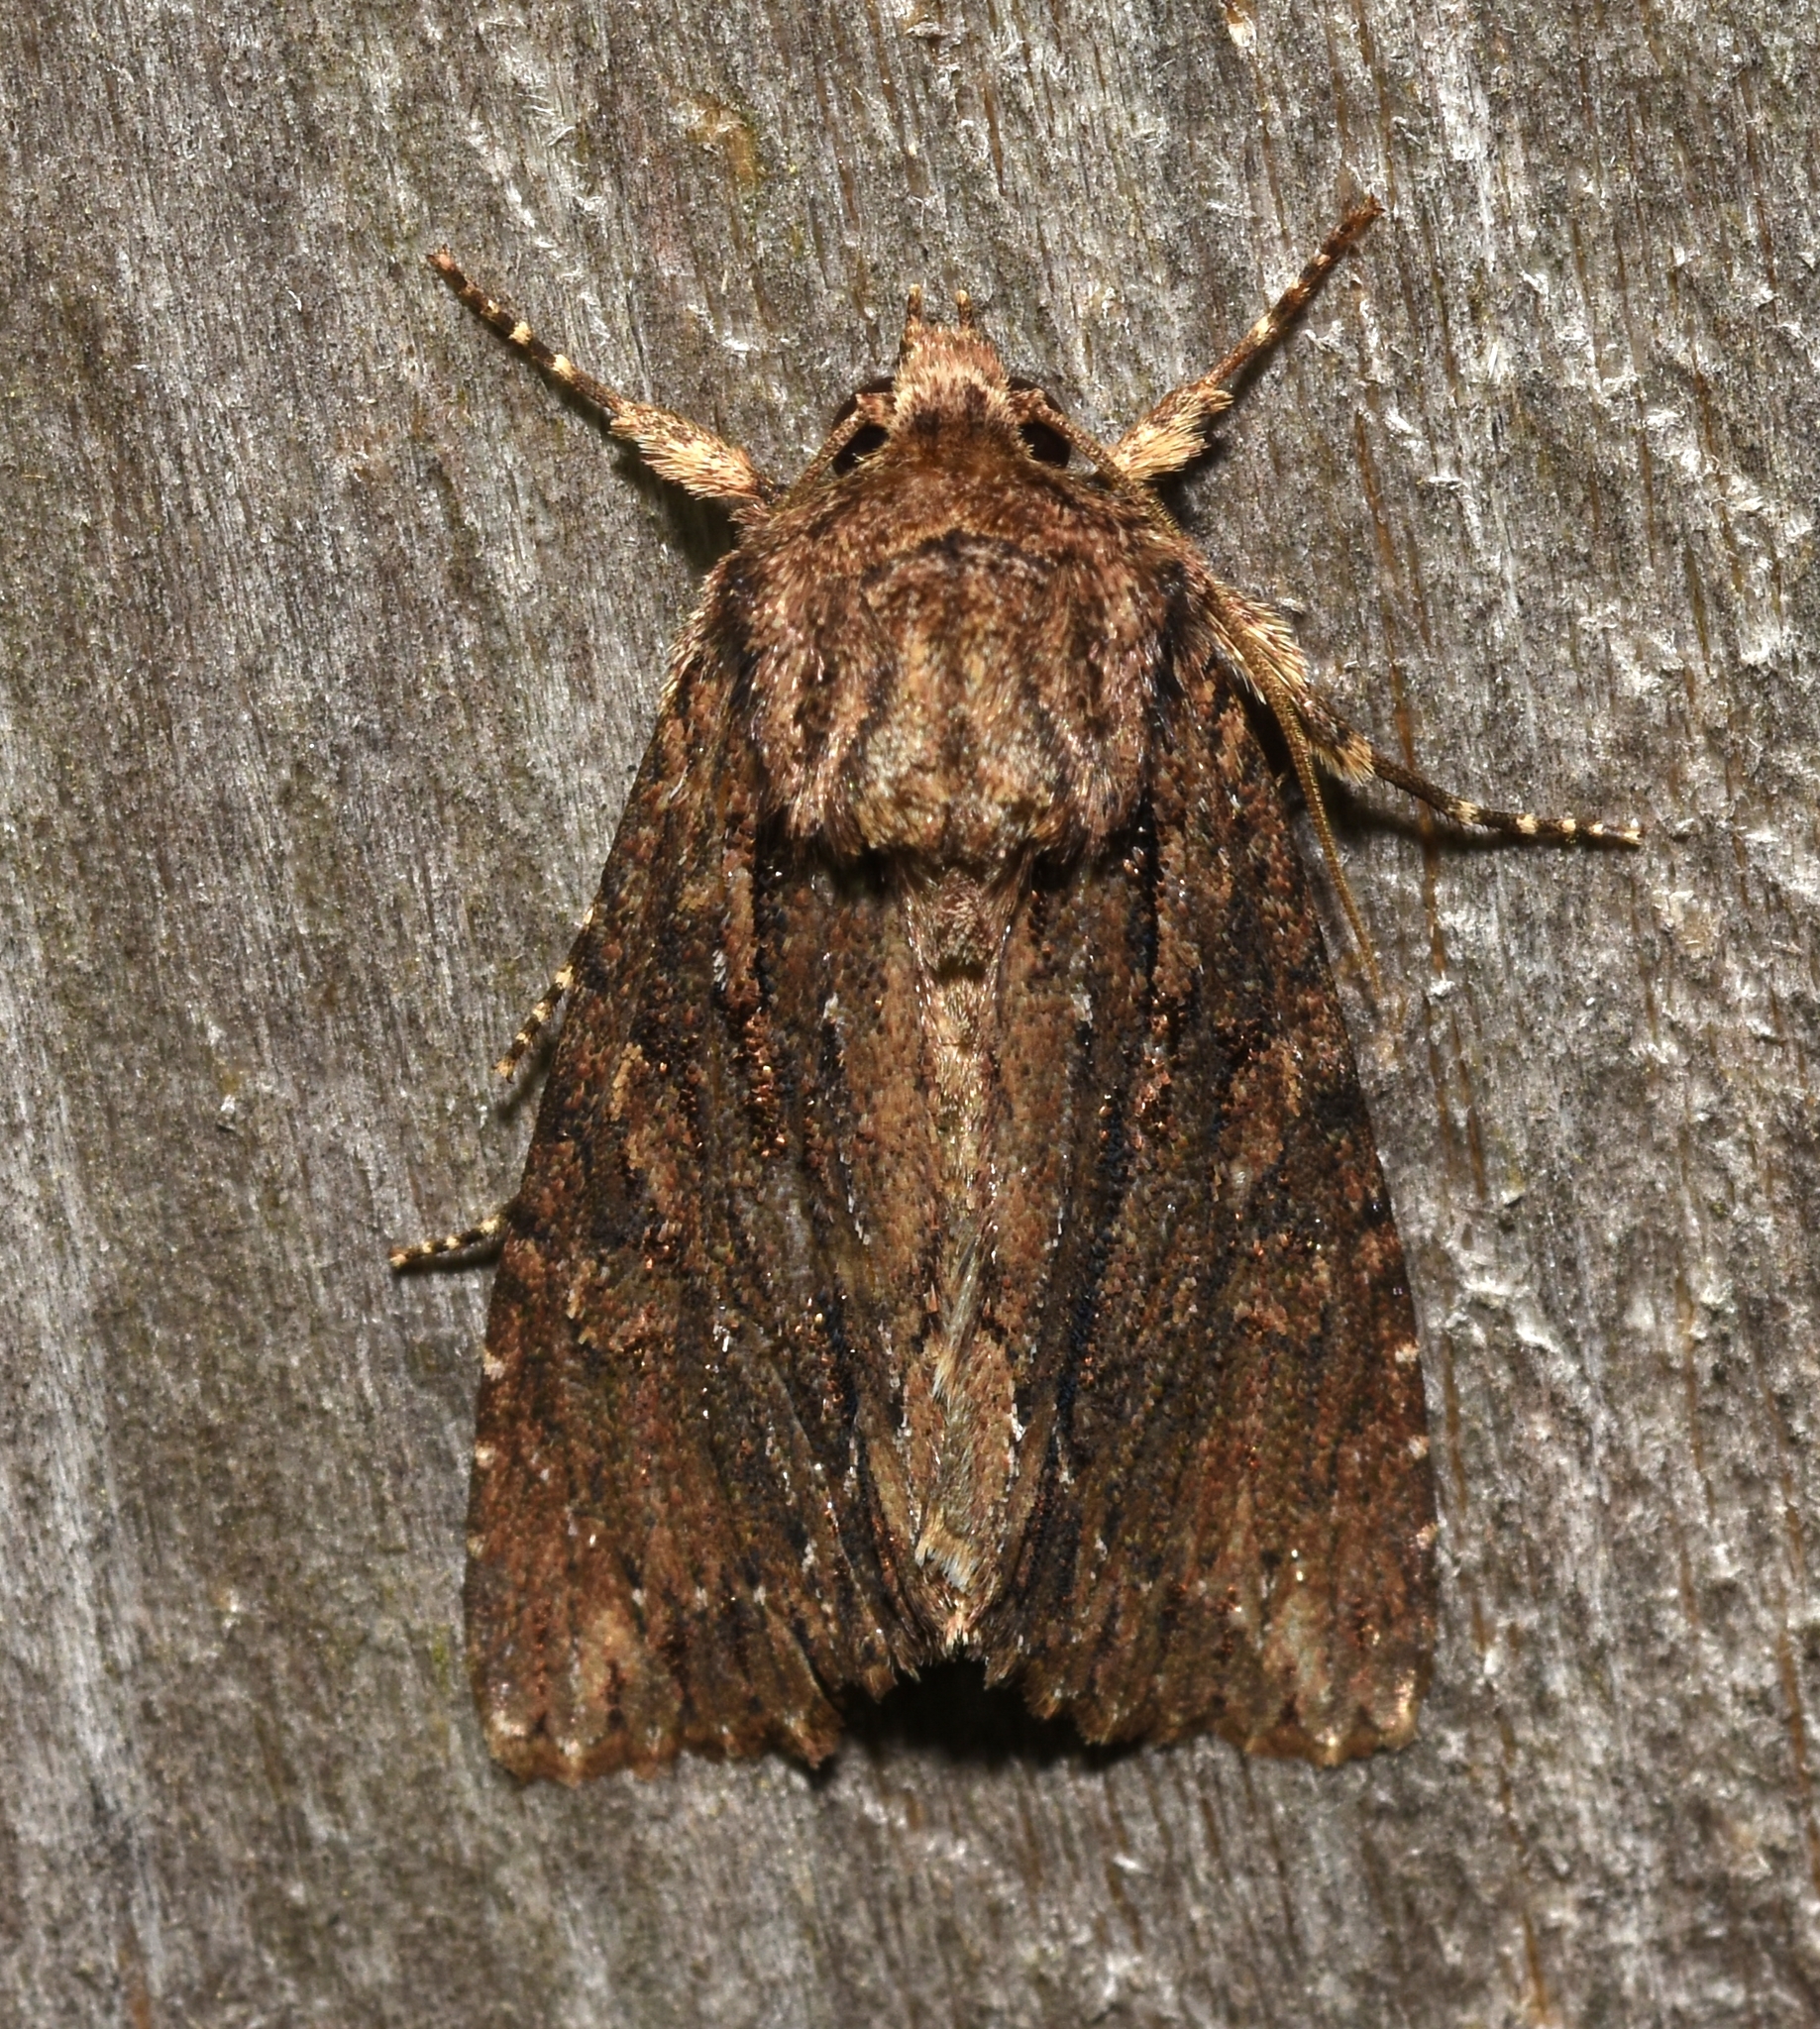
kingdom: Animalia
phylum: Arthropoda
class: Insecta
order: Lepidoptera
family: Noctuidae
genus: Achatia
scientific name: Achatia confusa
